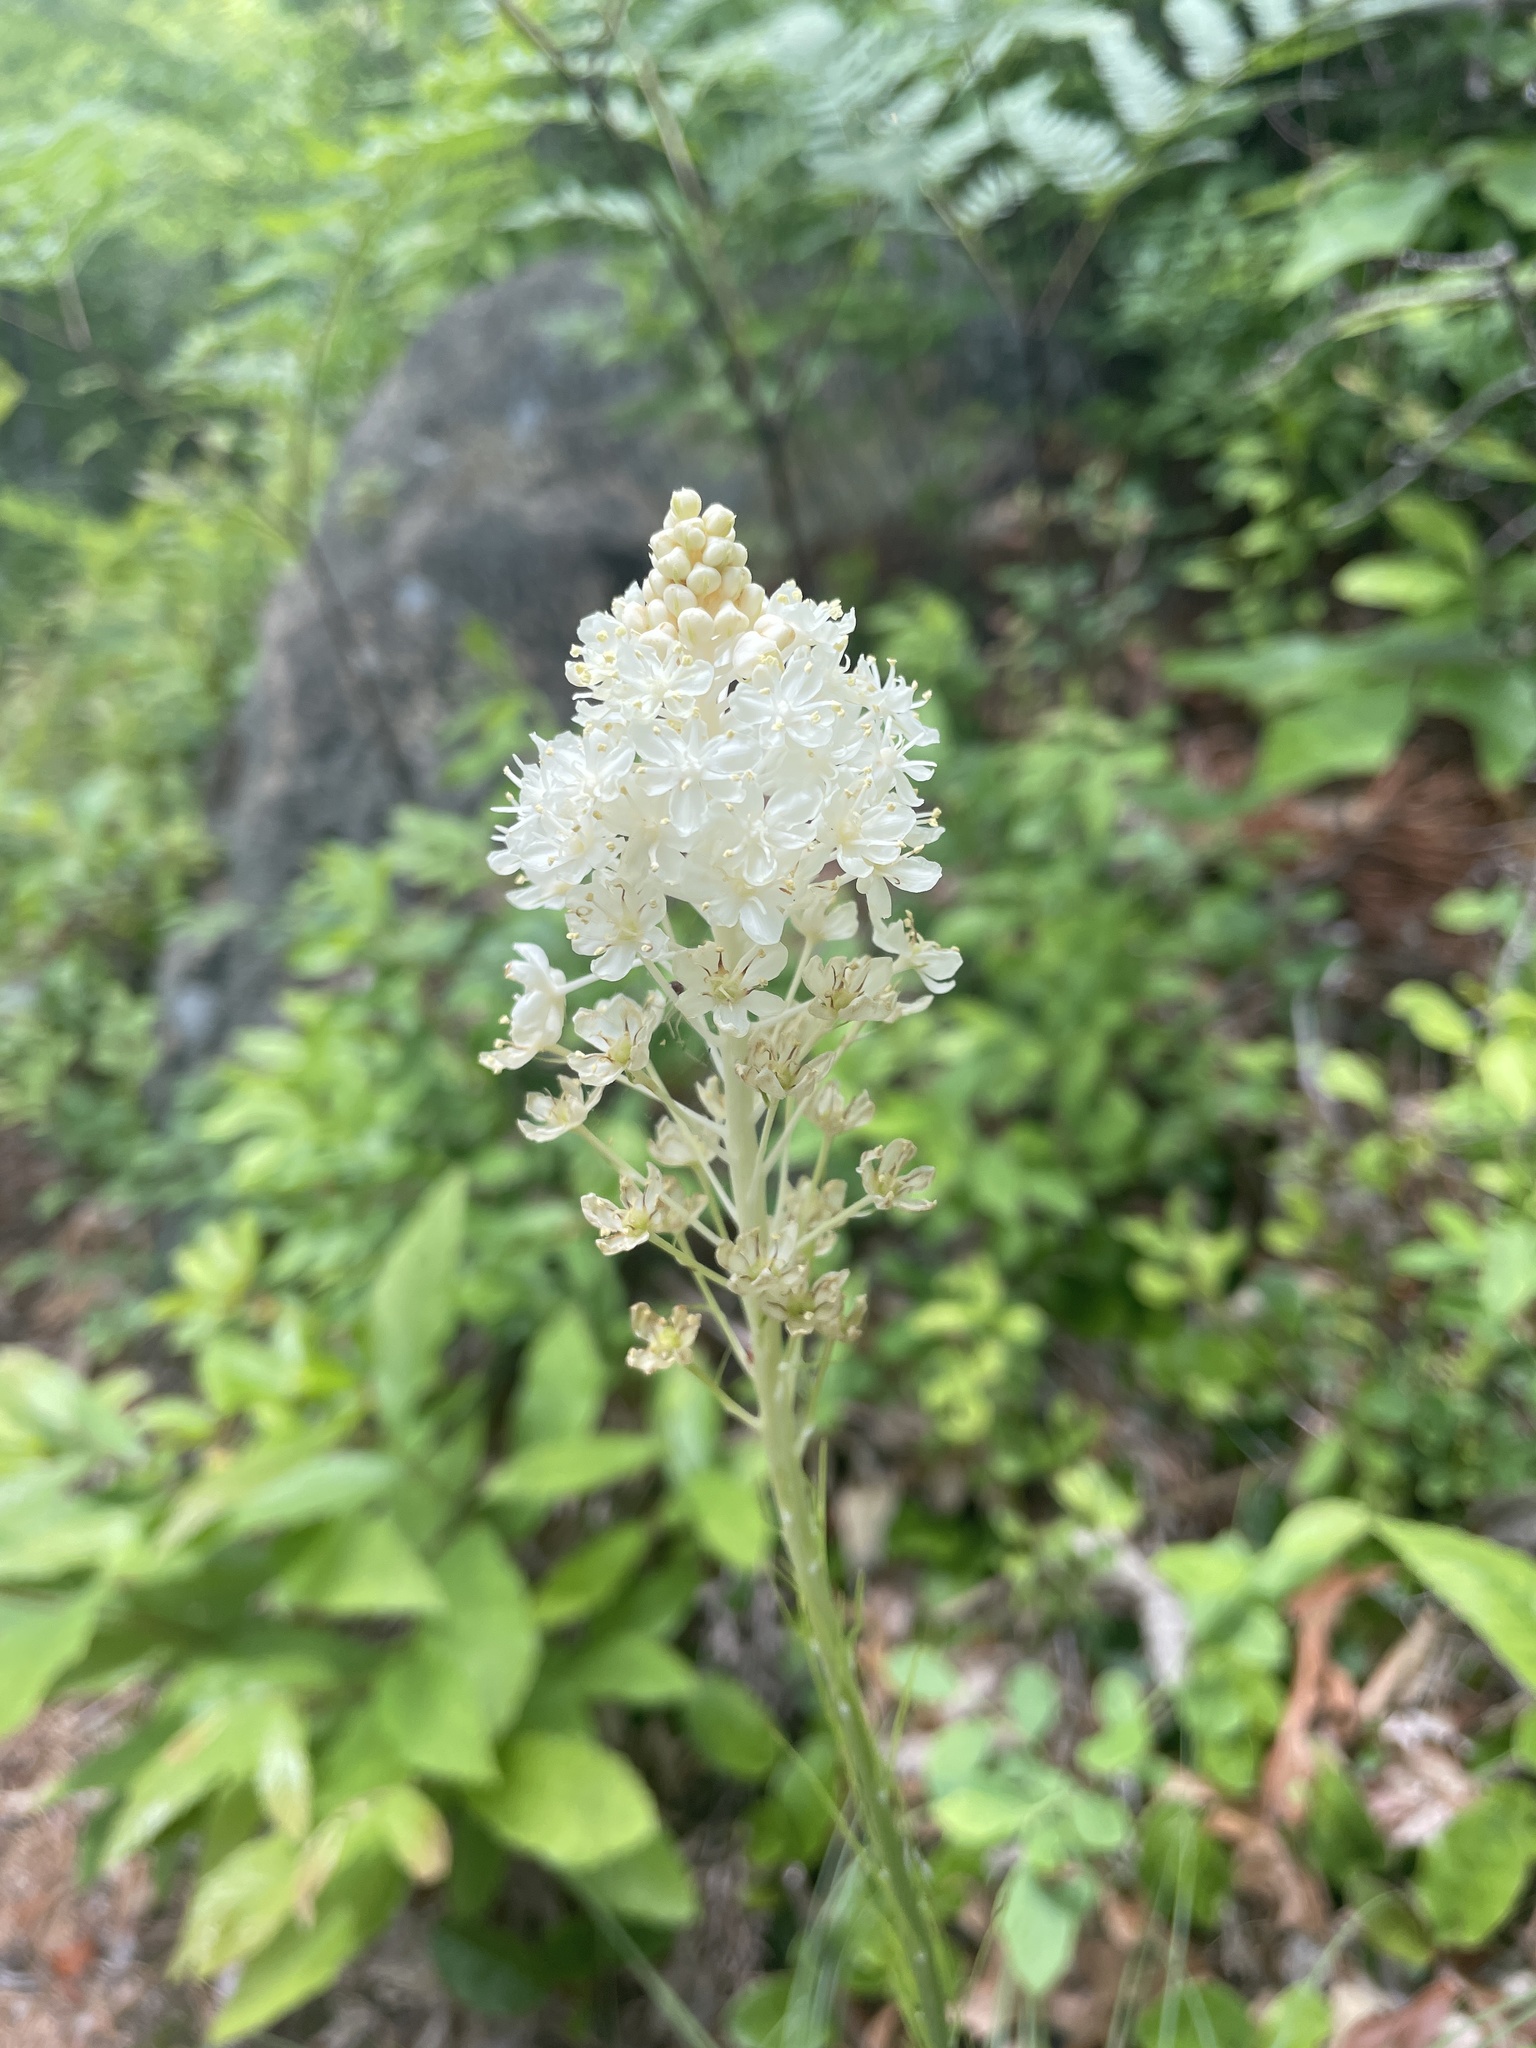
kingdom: Plantae
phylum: Tracheophyta
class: Liliopsida
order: Liliales
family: Melanthiaceae
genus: Xerophyllum
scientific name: Xerophyllum asphodeloides
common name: Mountain-asphodel
